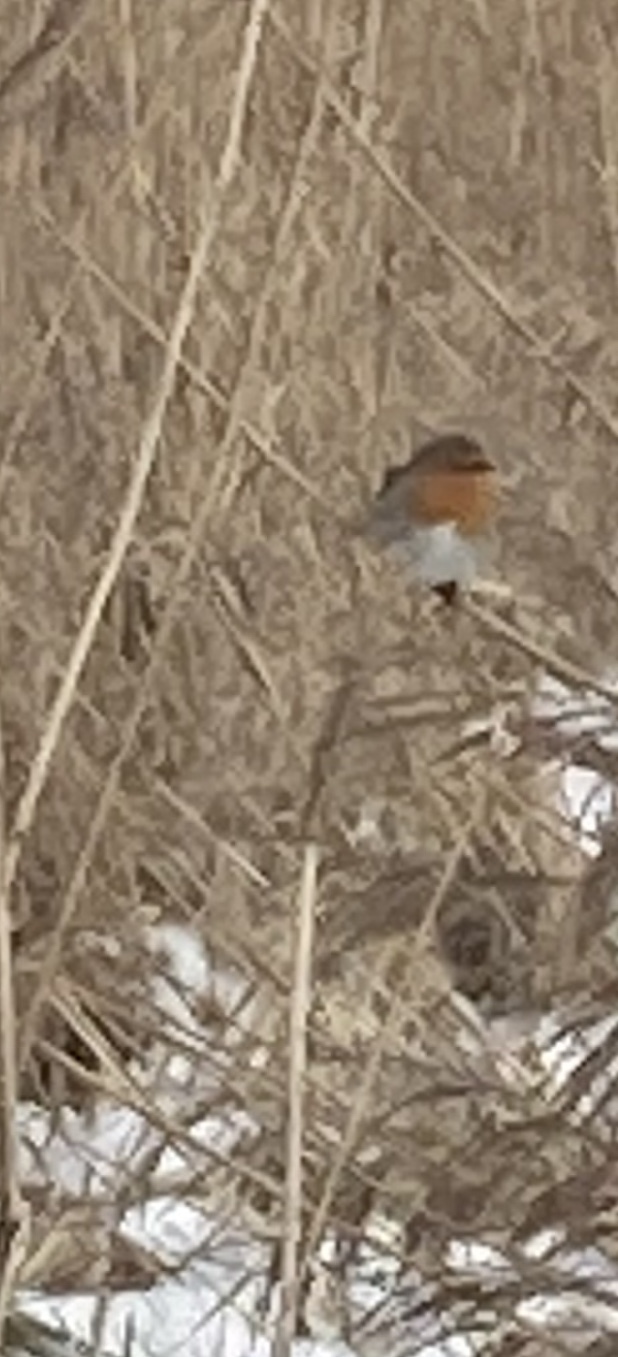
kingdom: Animalia
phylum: Chordata
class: Aves
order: Passeriformes
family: Muscicapidae
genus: Erithacus
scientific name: Erithacus rubecula
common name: European robin
